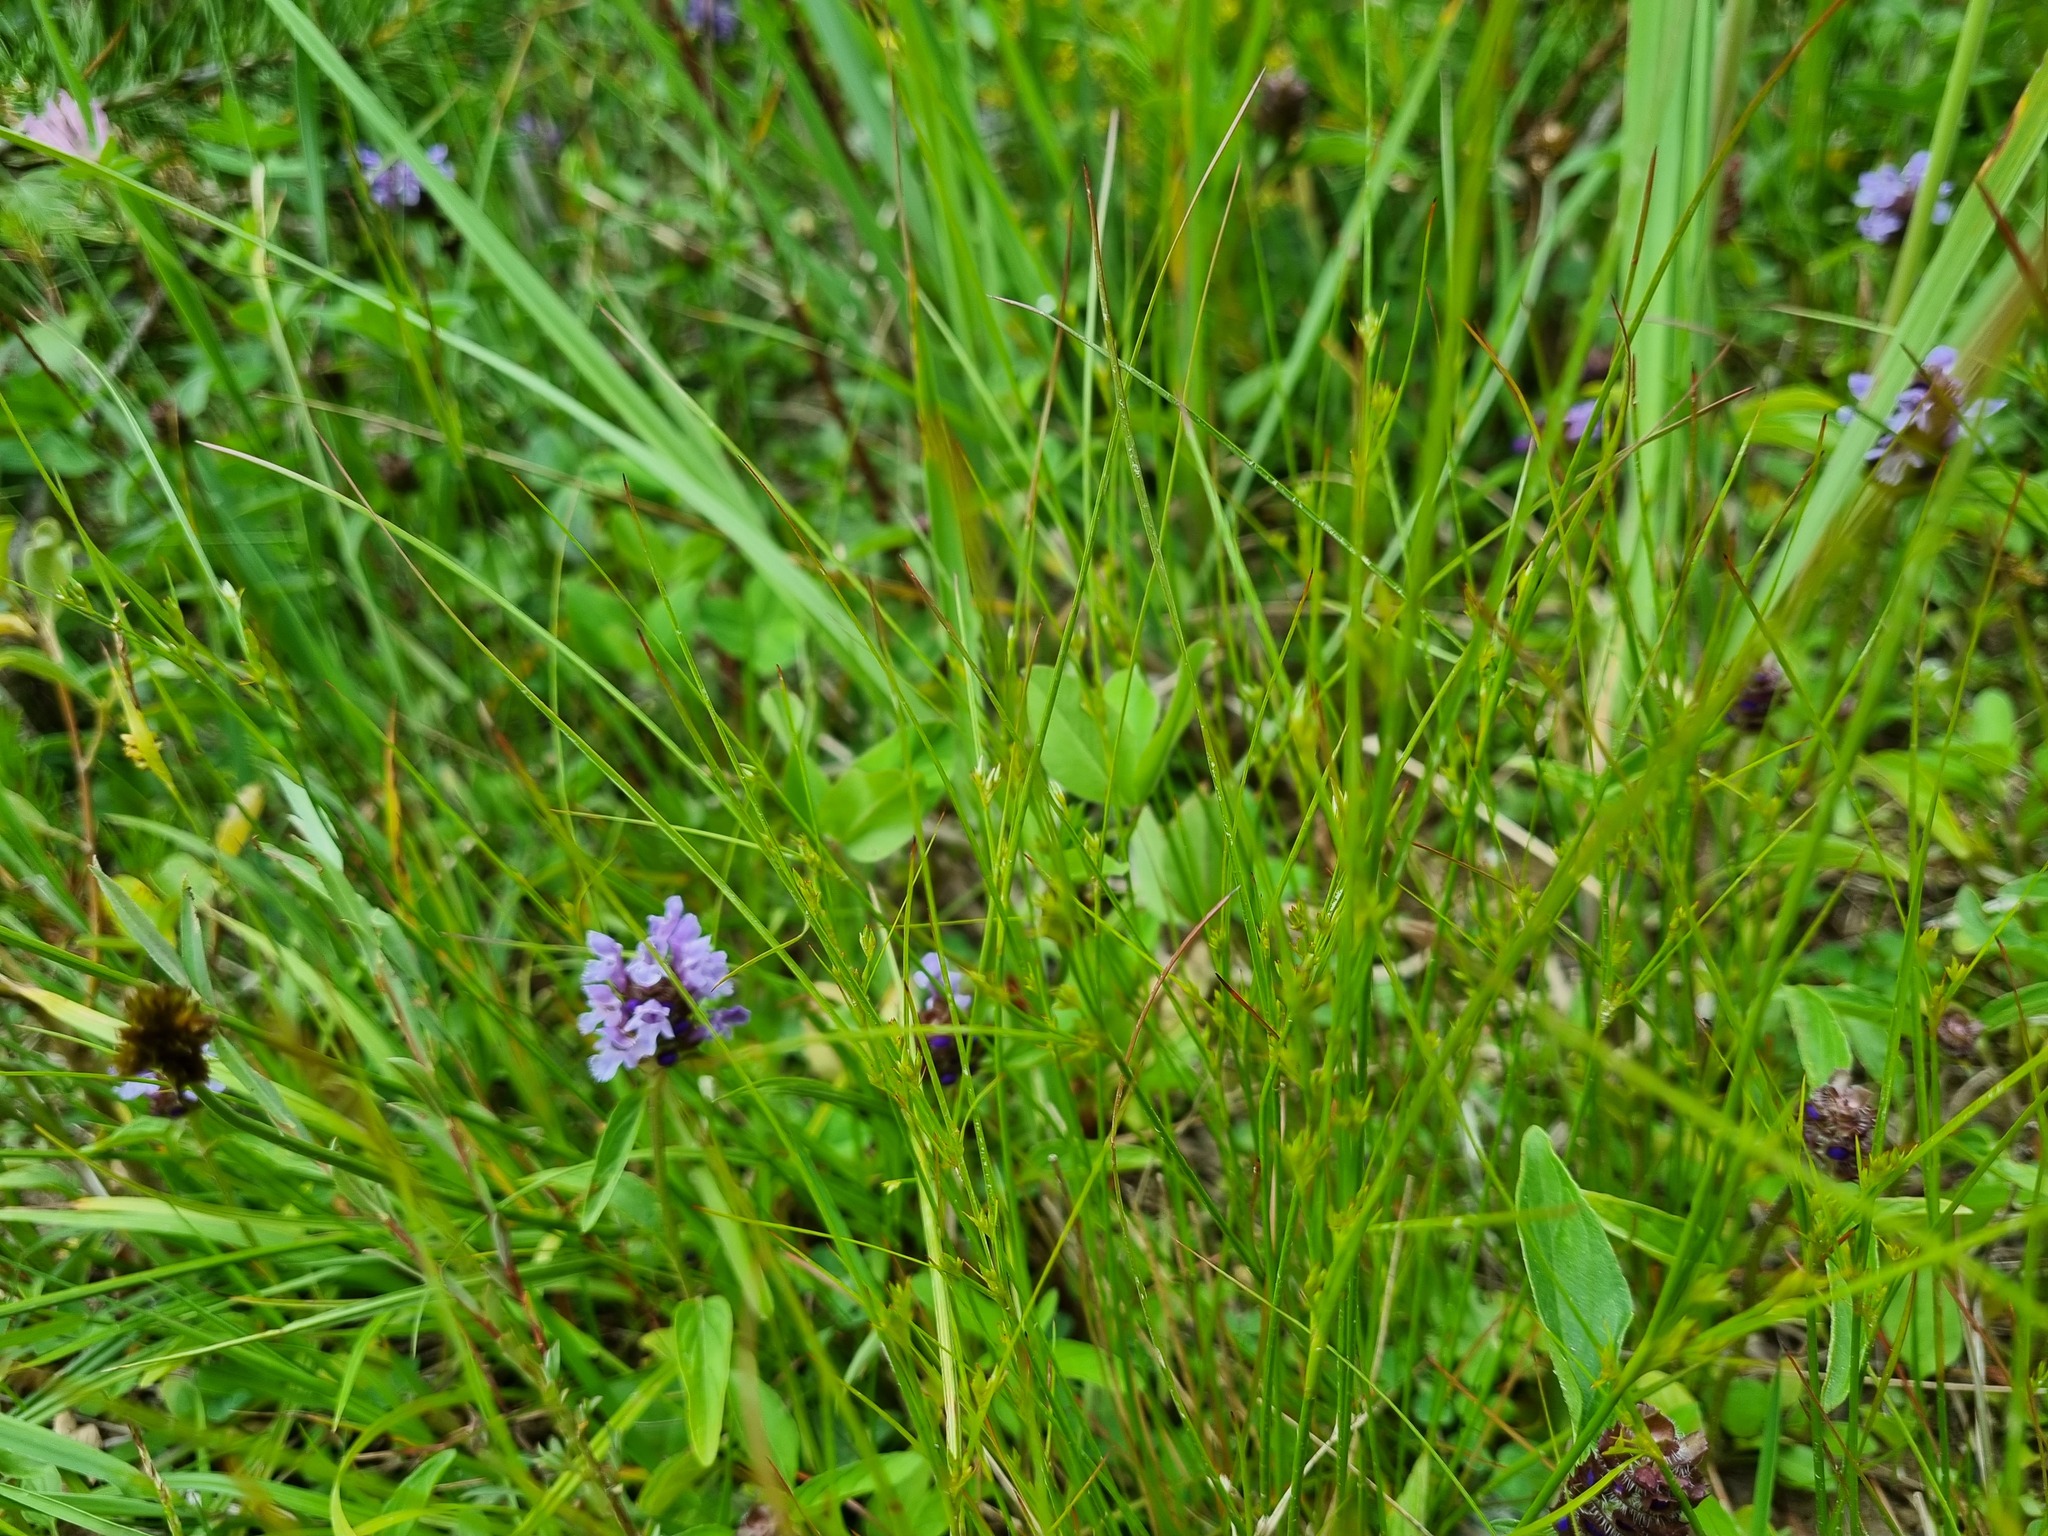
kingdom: Plantae
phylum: Tracheophyta
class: Liliopsida
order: Poales
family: Juncaceae
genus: Juncus
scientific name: Juncus tenuis
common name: Slender rush
